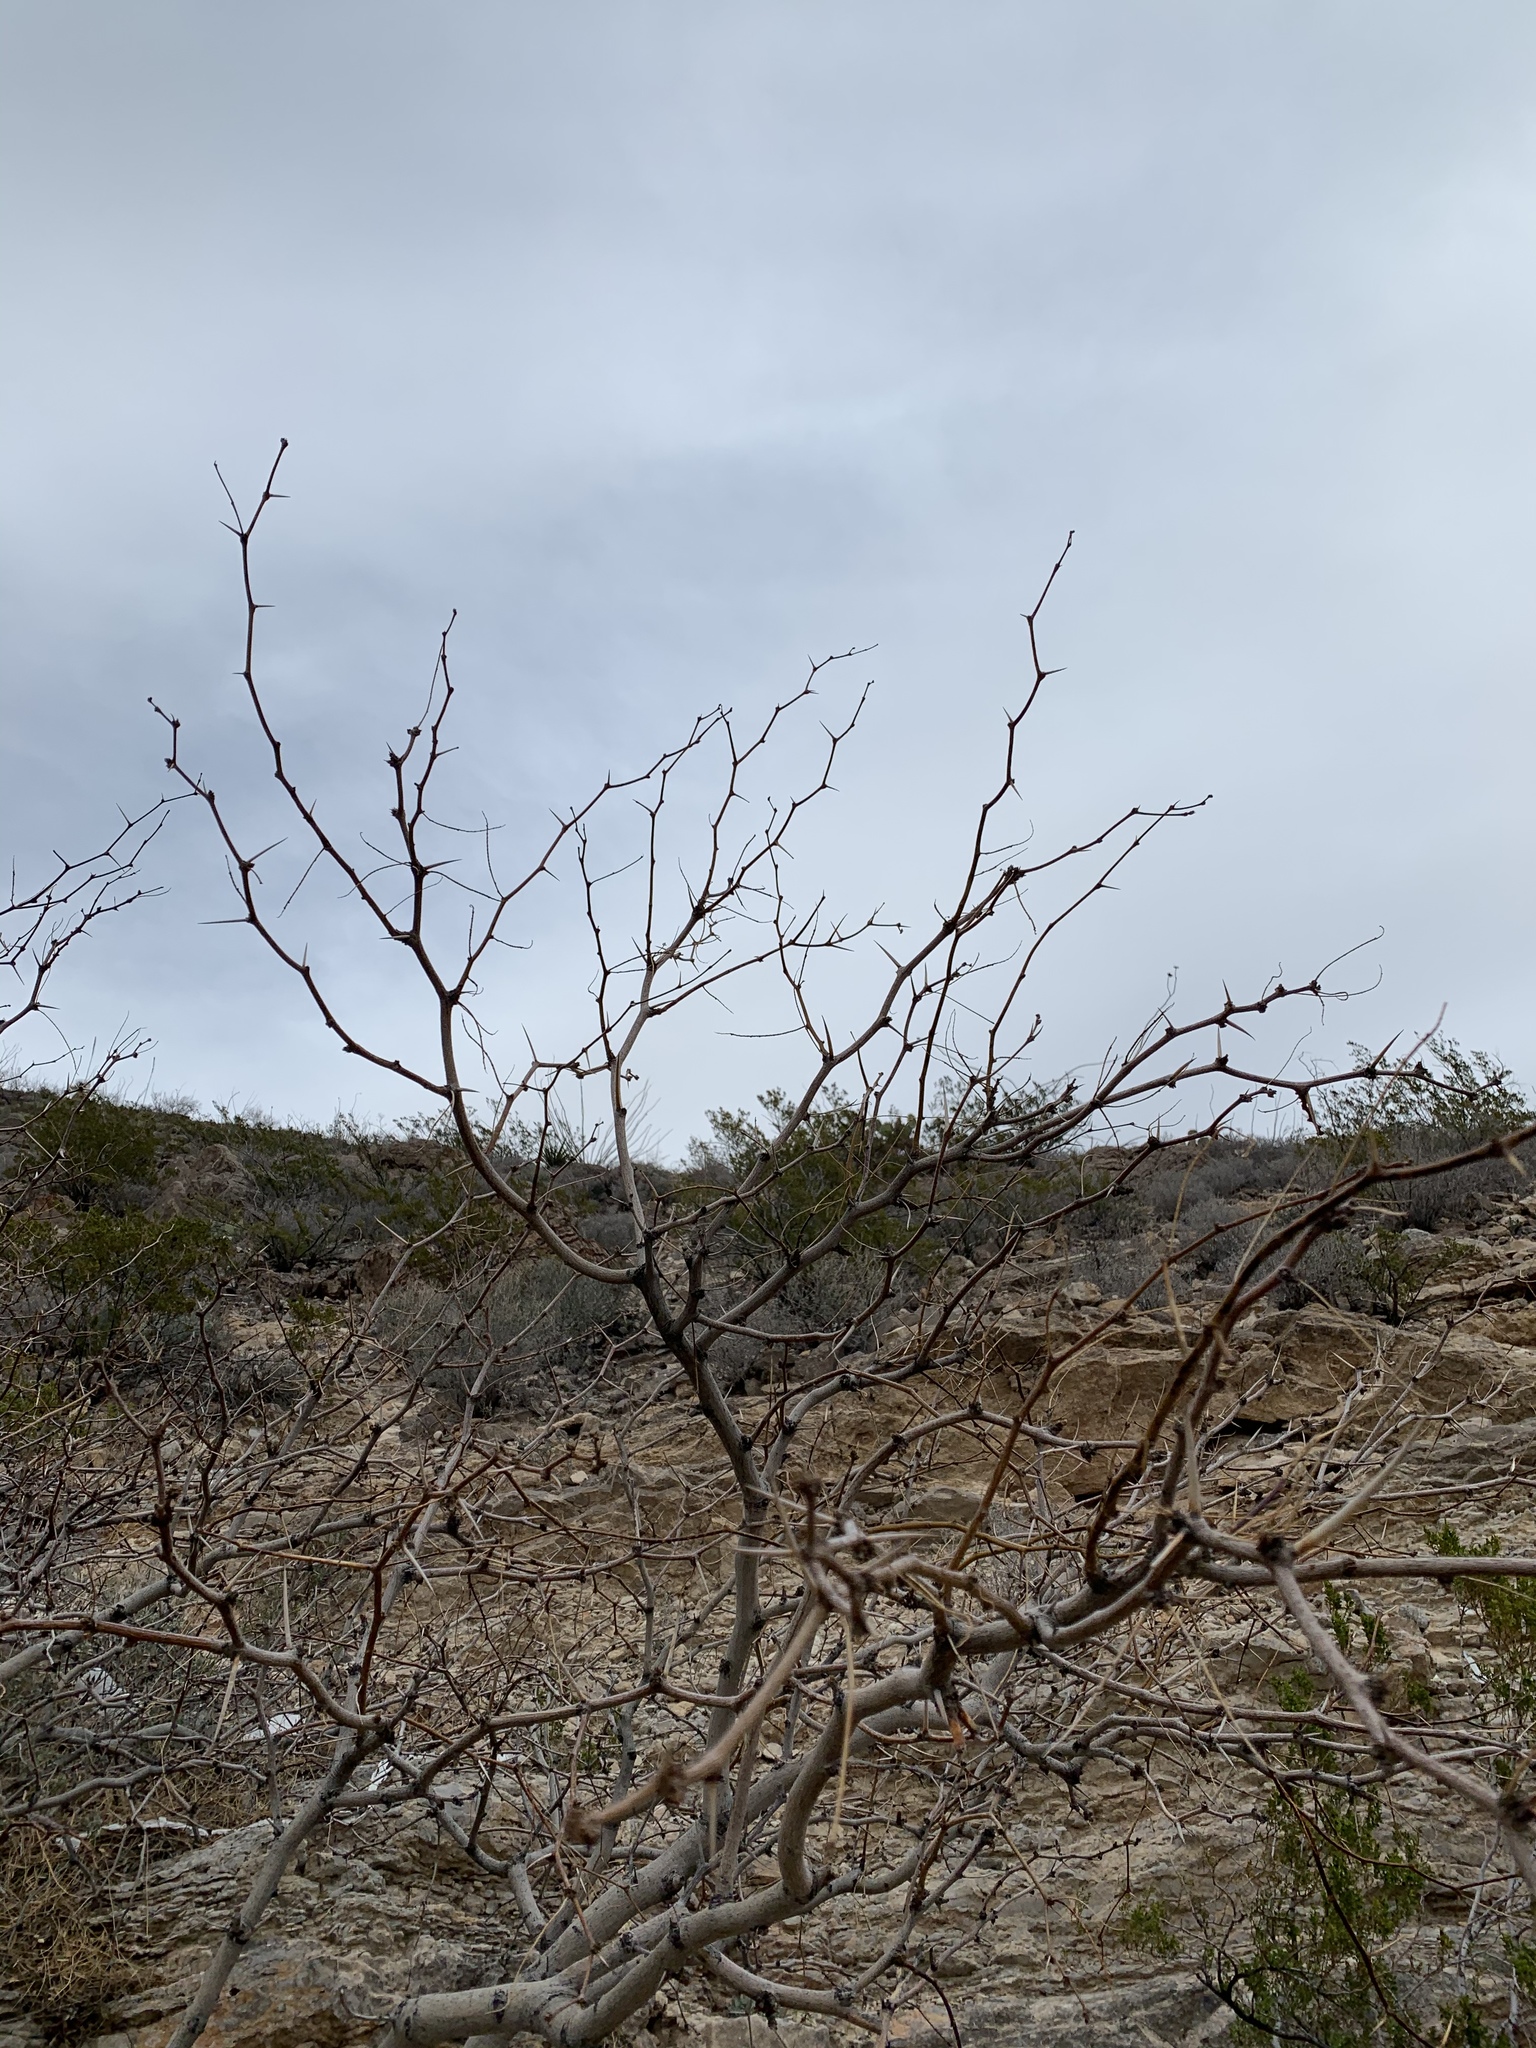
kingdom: Plantae
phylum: Tracheophyta
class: Magnoliopsida
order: Fabales
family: Fabaceae
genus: Prosopis
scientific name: Prosopis glandulosa
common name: Honey mesquite
